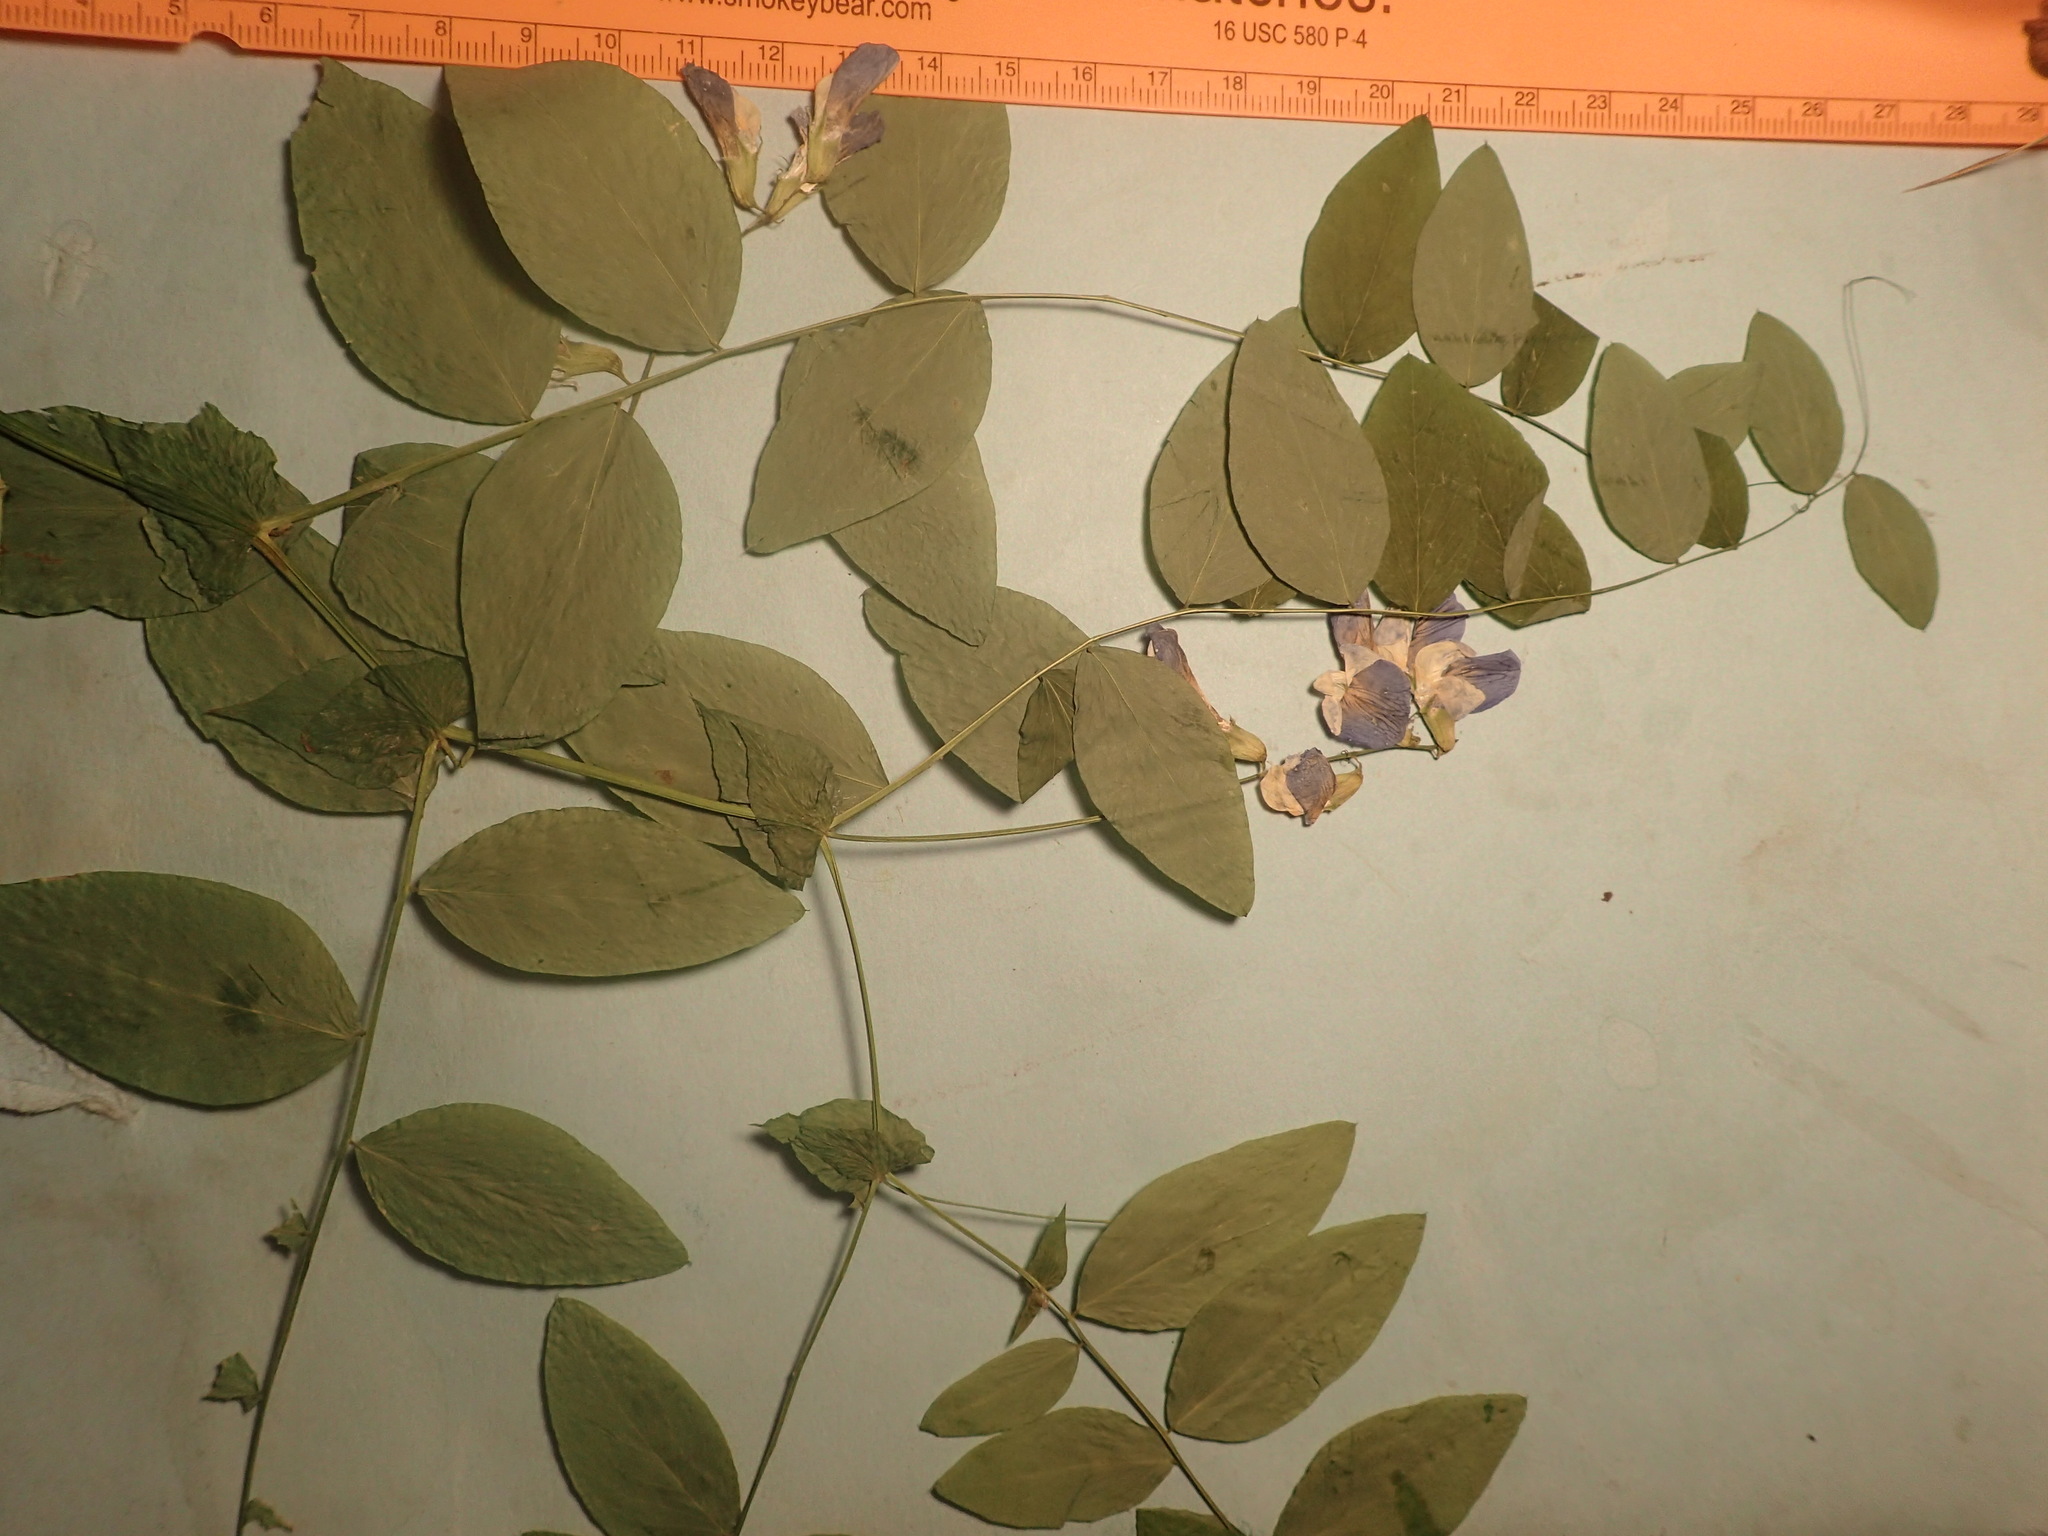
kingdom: Plantae
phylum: Tracheophyta
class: Magnoliopsida
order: Fabales
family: Fabaceae
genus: Lathyrus
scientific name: Lathyrus polyphyllus
